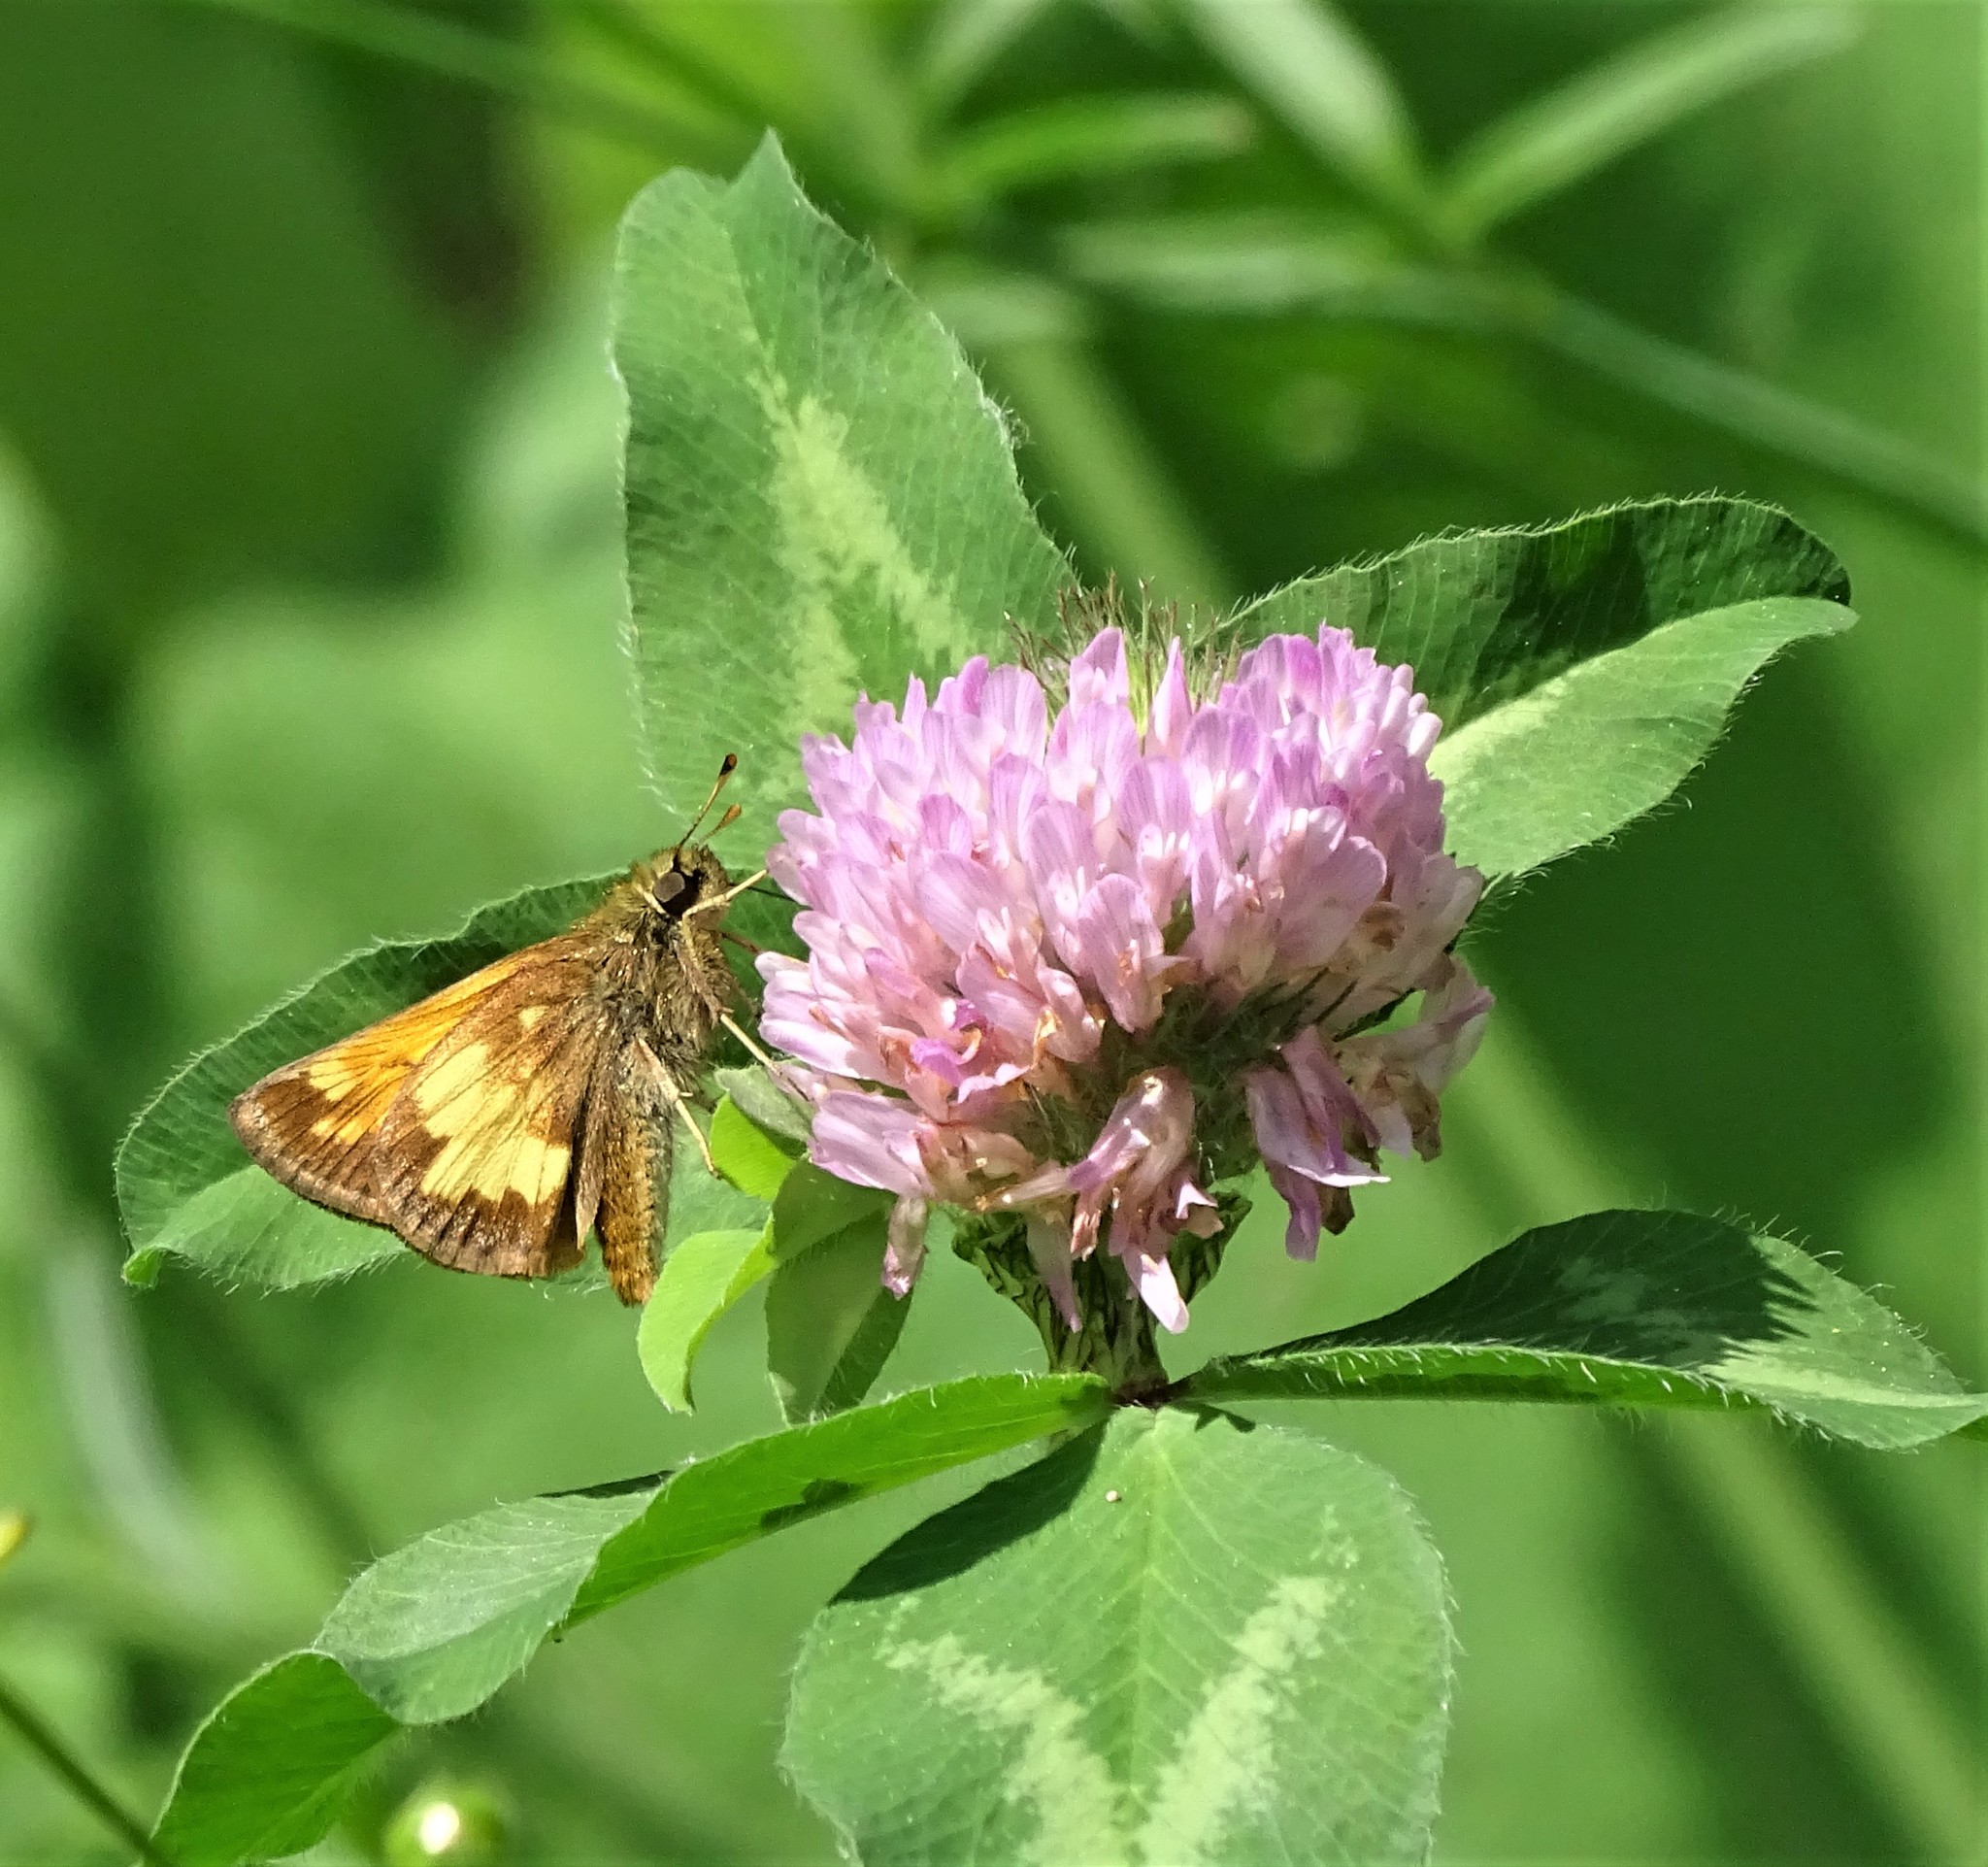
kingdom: Animalia
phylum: Arthropoda
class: Insecta
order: Lepidoptera
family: Hesperiidae
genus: Lon
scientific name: Lon hobomok
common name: Hobomok skipper
